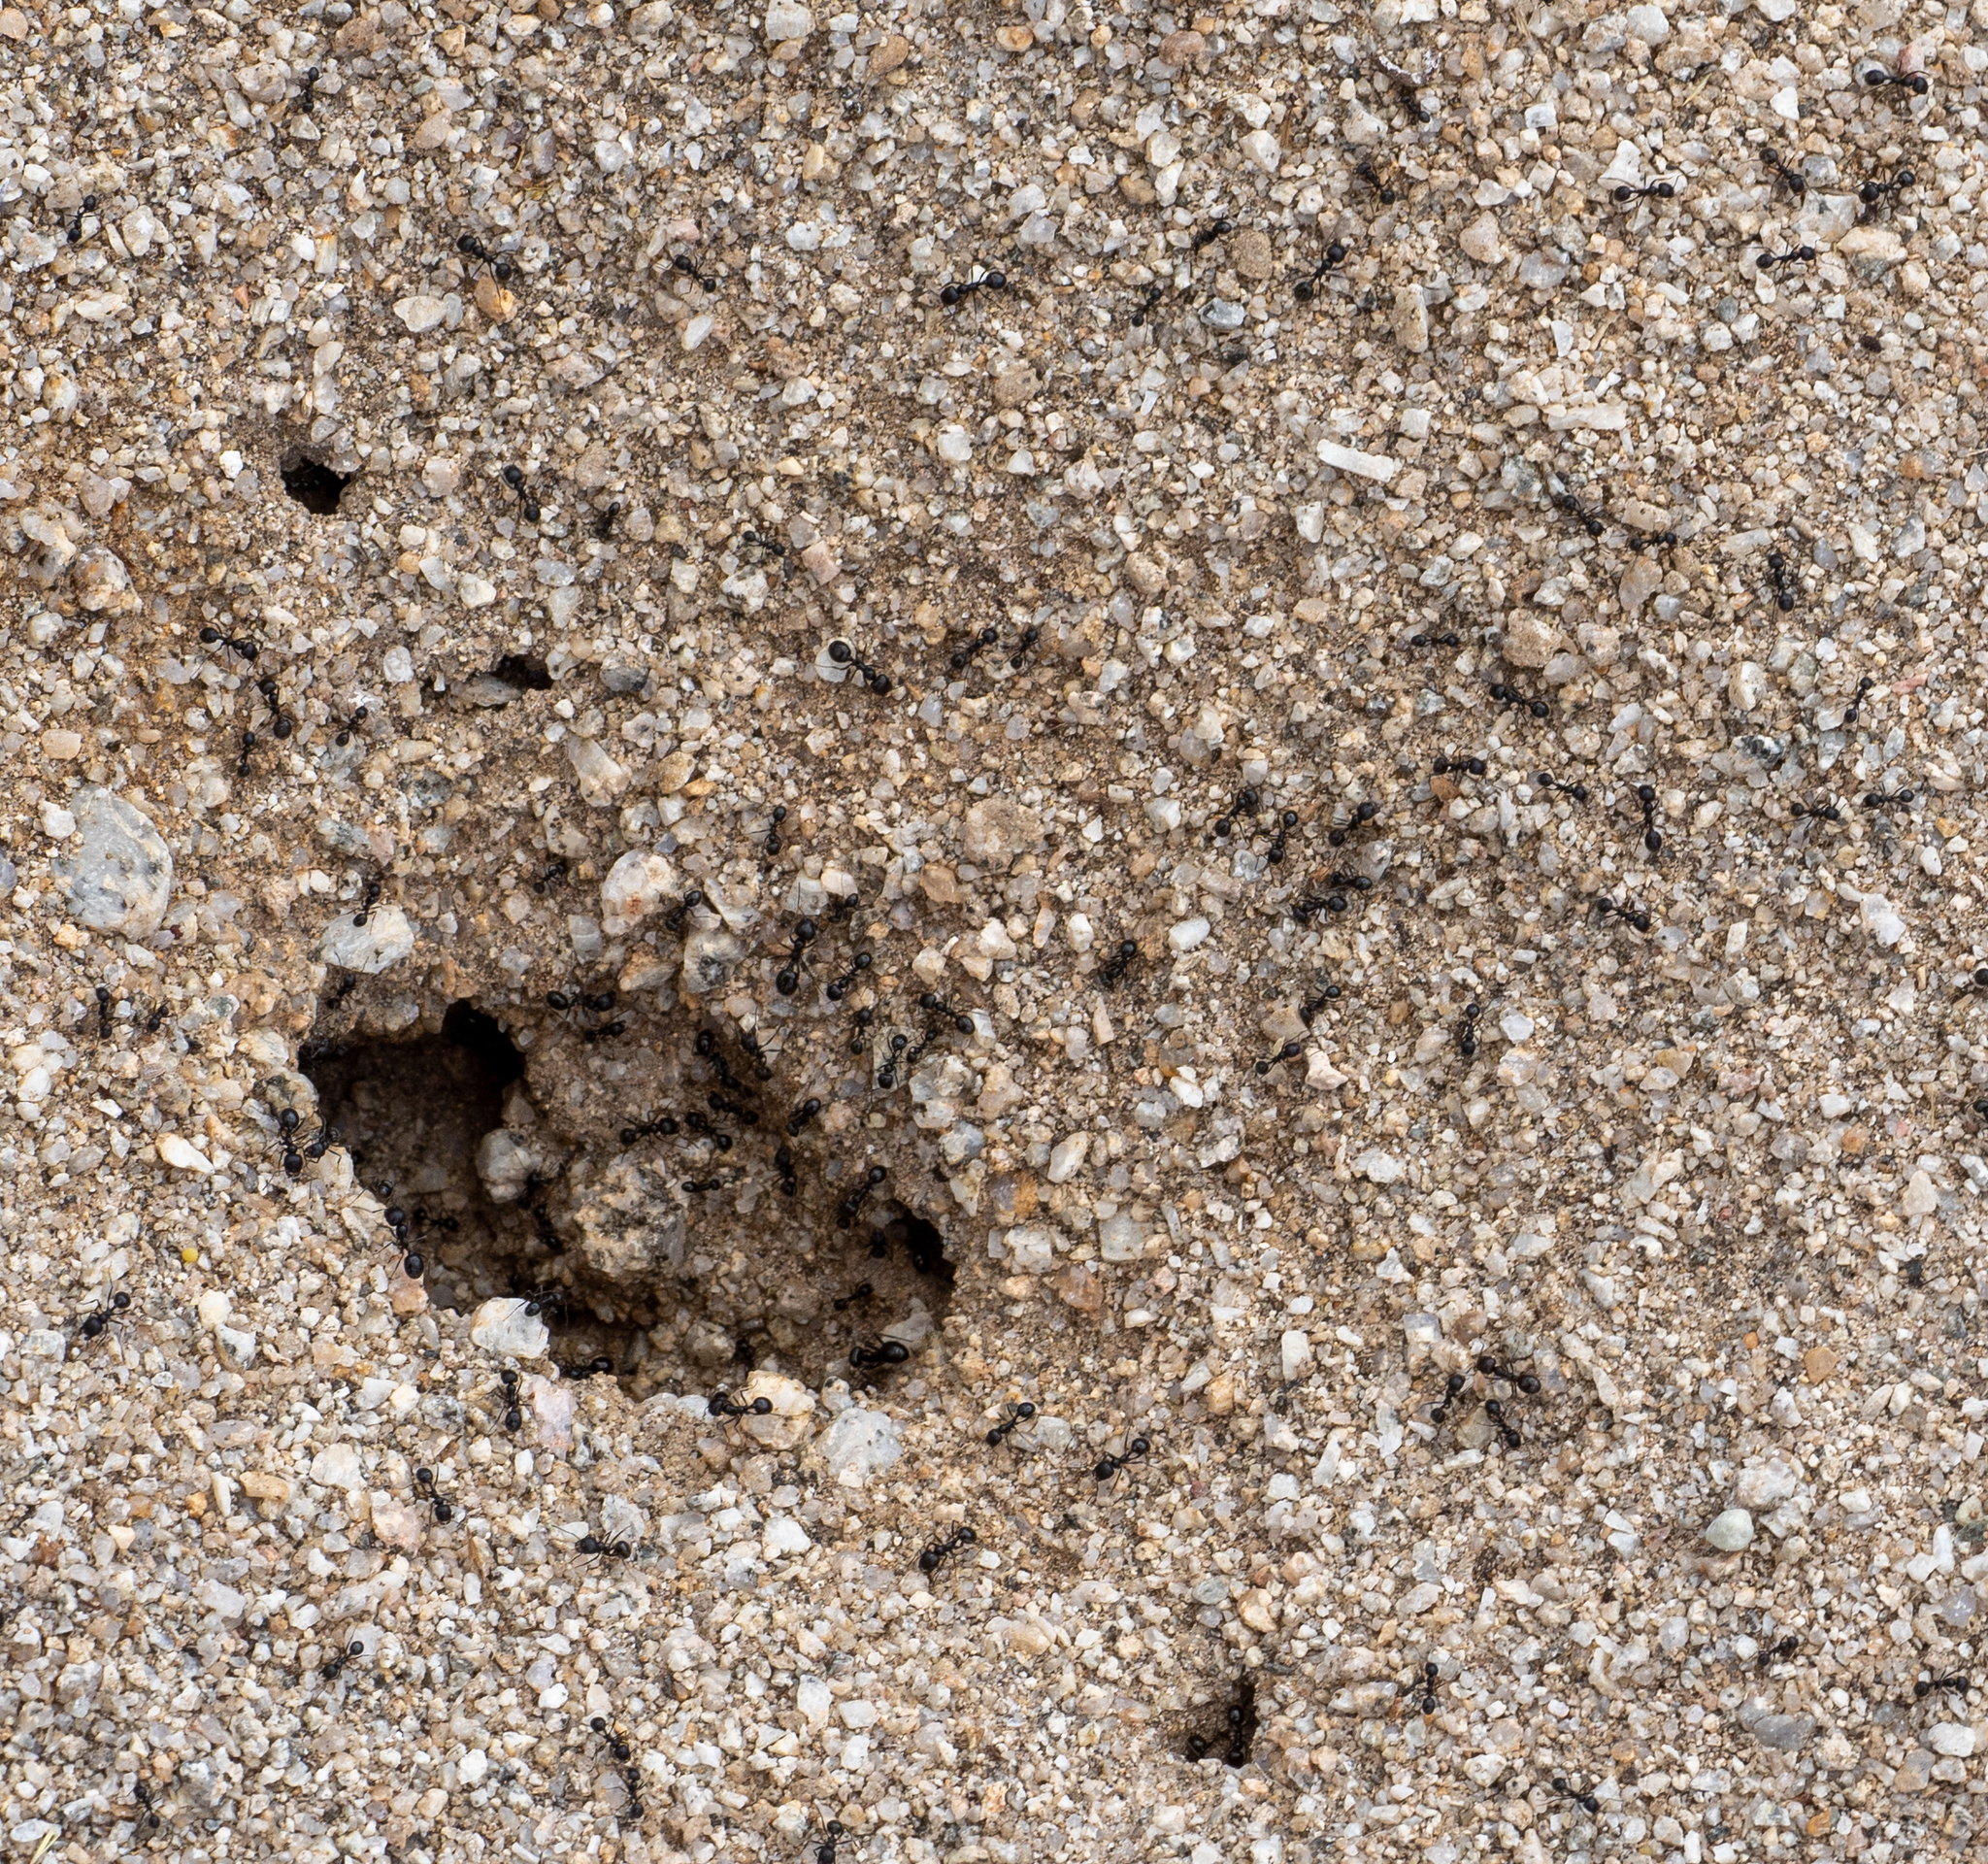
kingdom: Animalia
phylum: Arthropoda
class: Insecta
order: Hymenoptera
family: Formicidae
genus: Messor
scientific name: Messor pergandei
